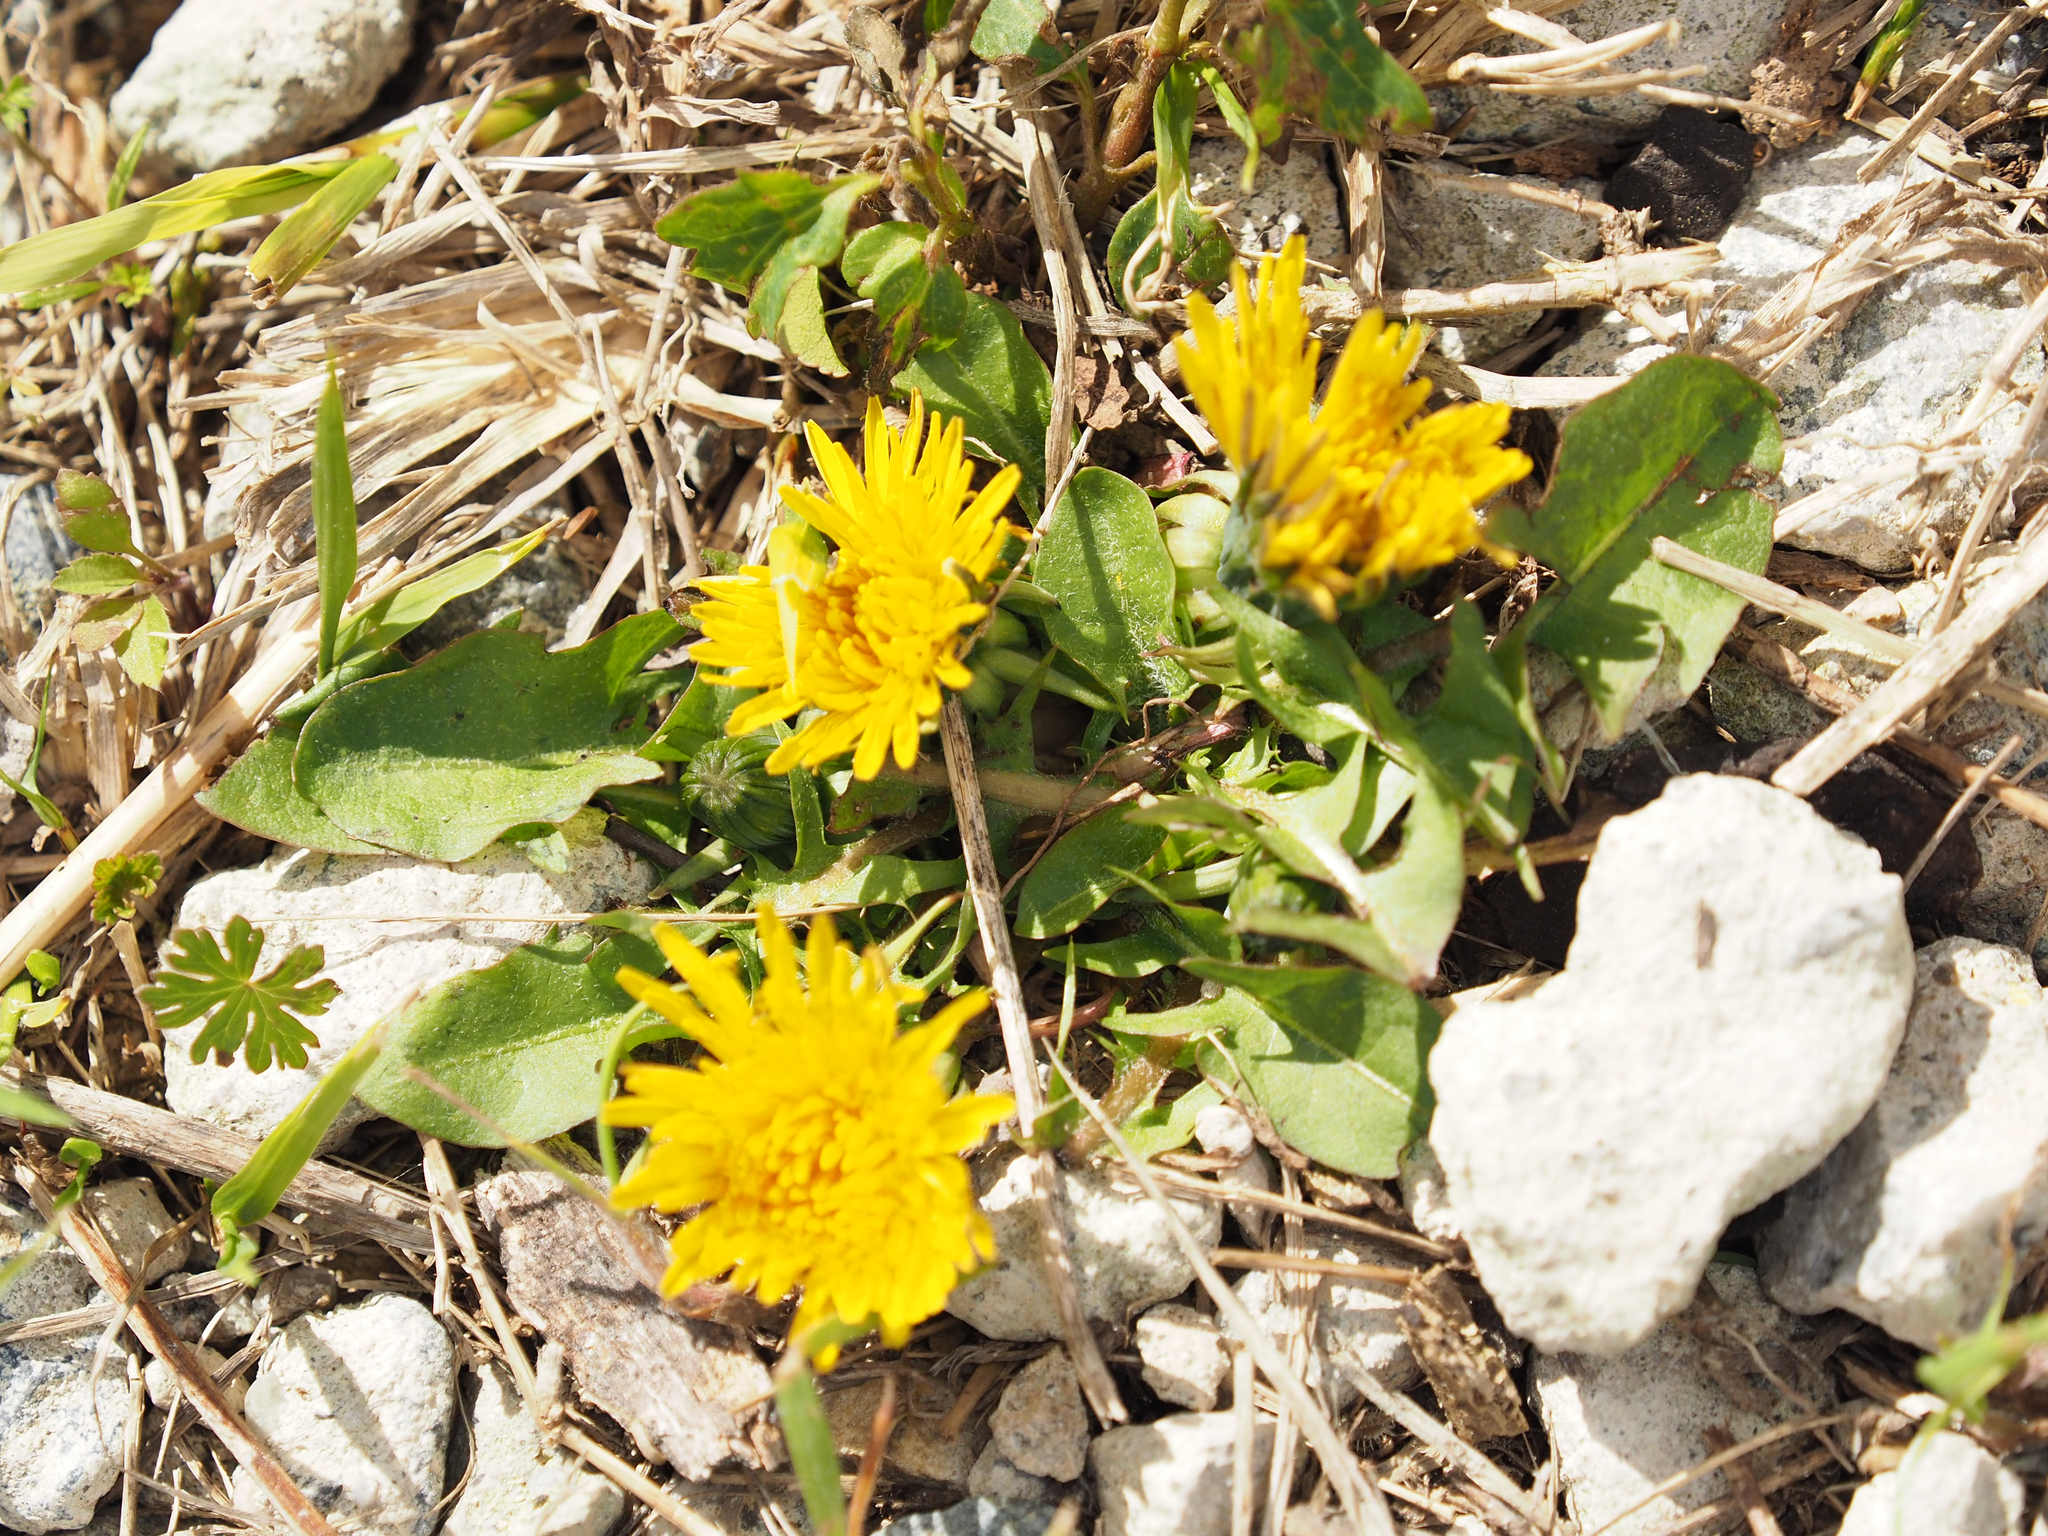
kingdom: Plantae
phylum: Tracheophyta
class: Magnoliopsida
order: Asterales
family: Asteraceae
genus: Taraxacum
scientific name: Taraxacum officinale
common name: Common dandelion
